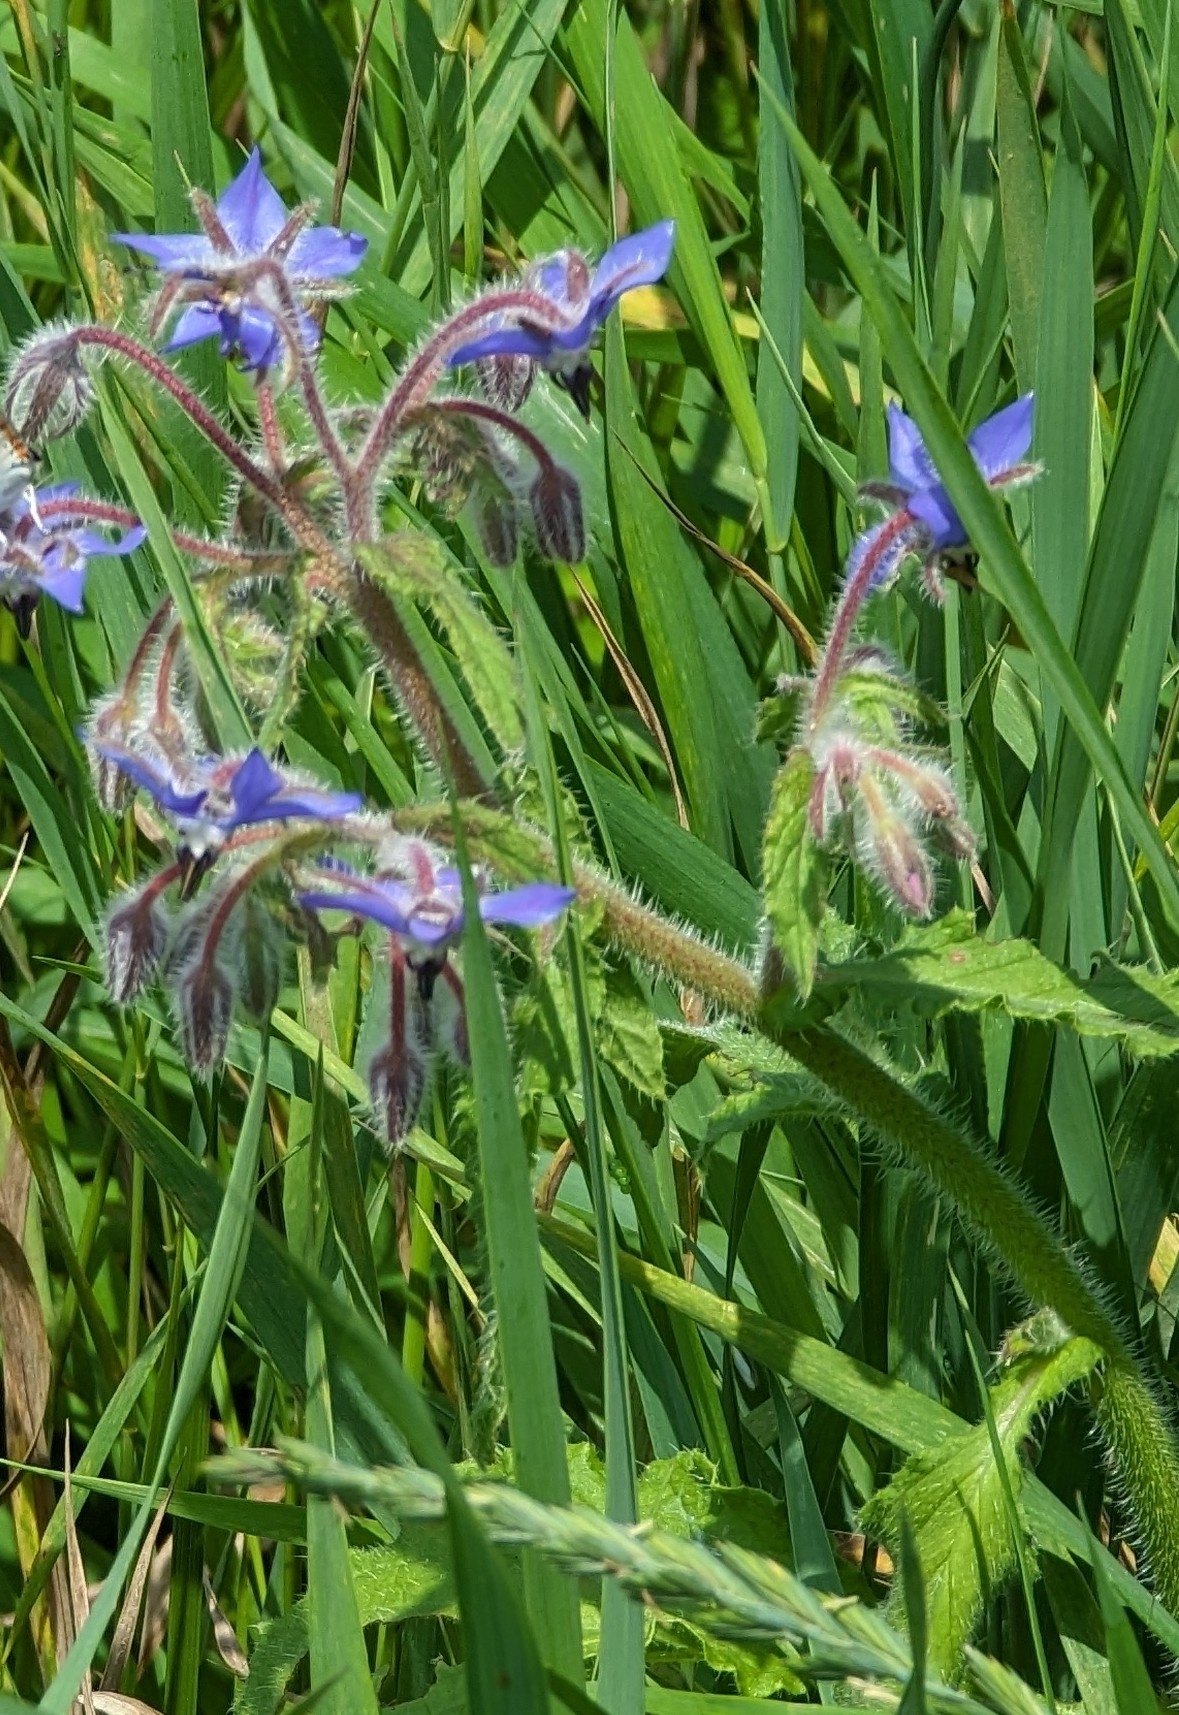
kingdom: Plantae
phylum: Tracheophyta
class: Magnoliopsida
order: Boraginales
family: Boraginaceae
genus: Borago
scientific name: Borago officinalis
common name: Borage
